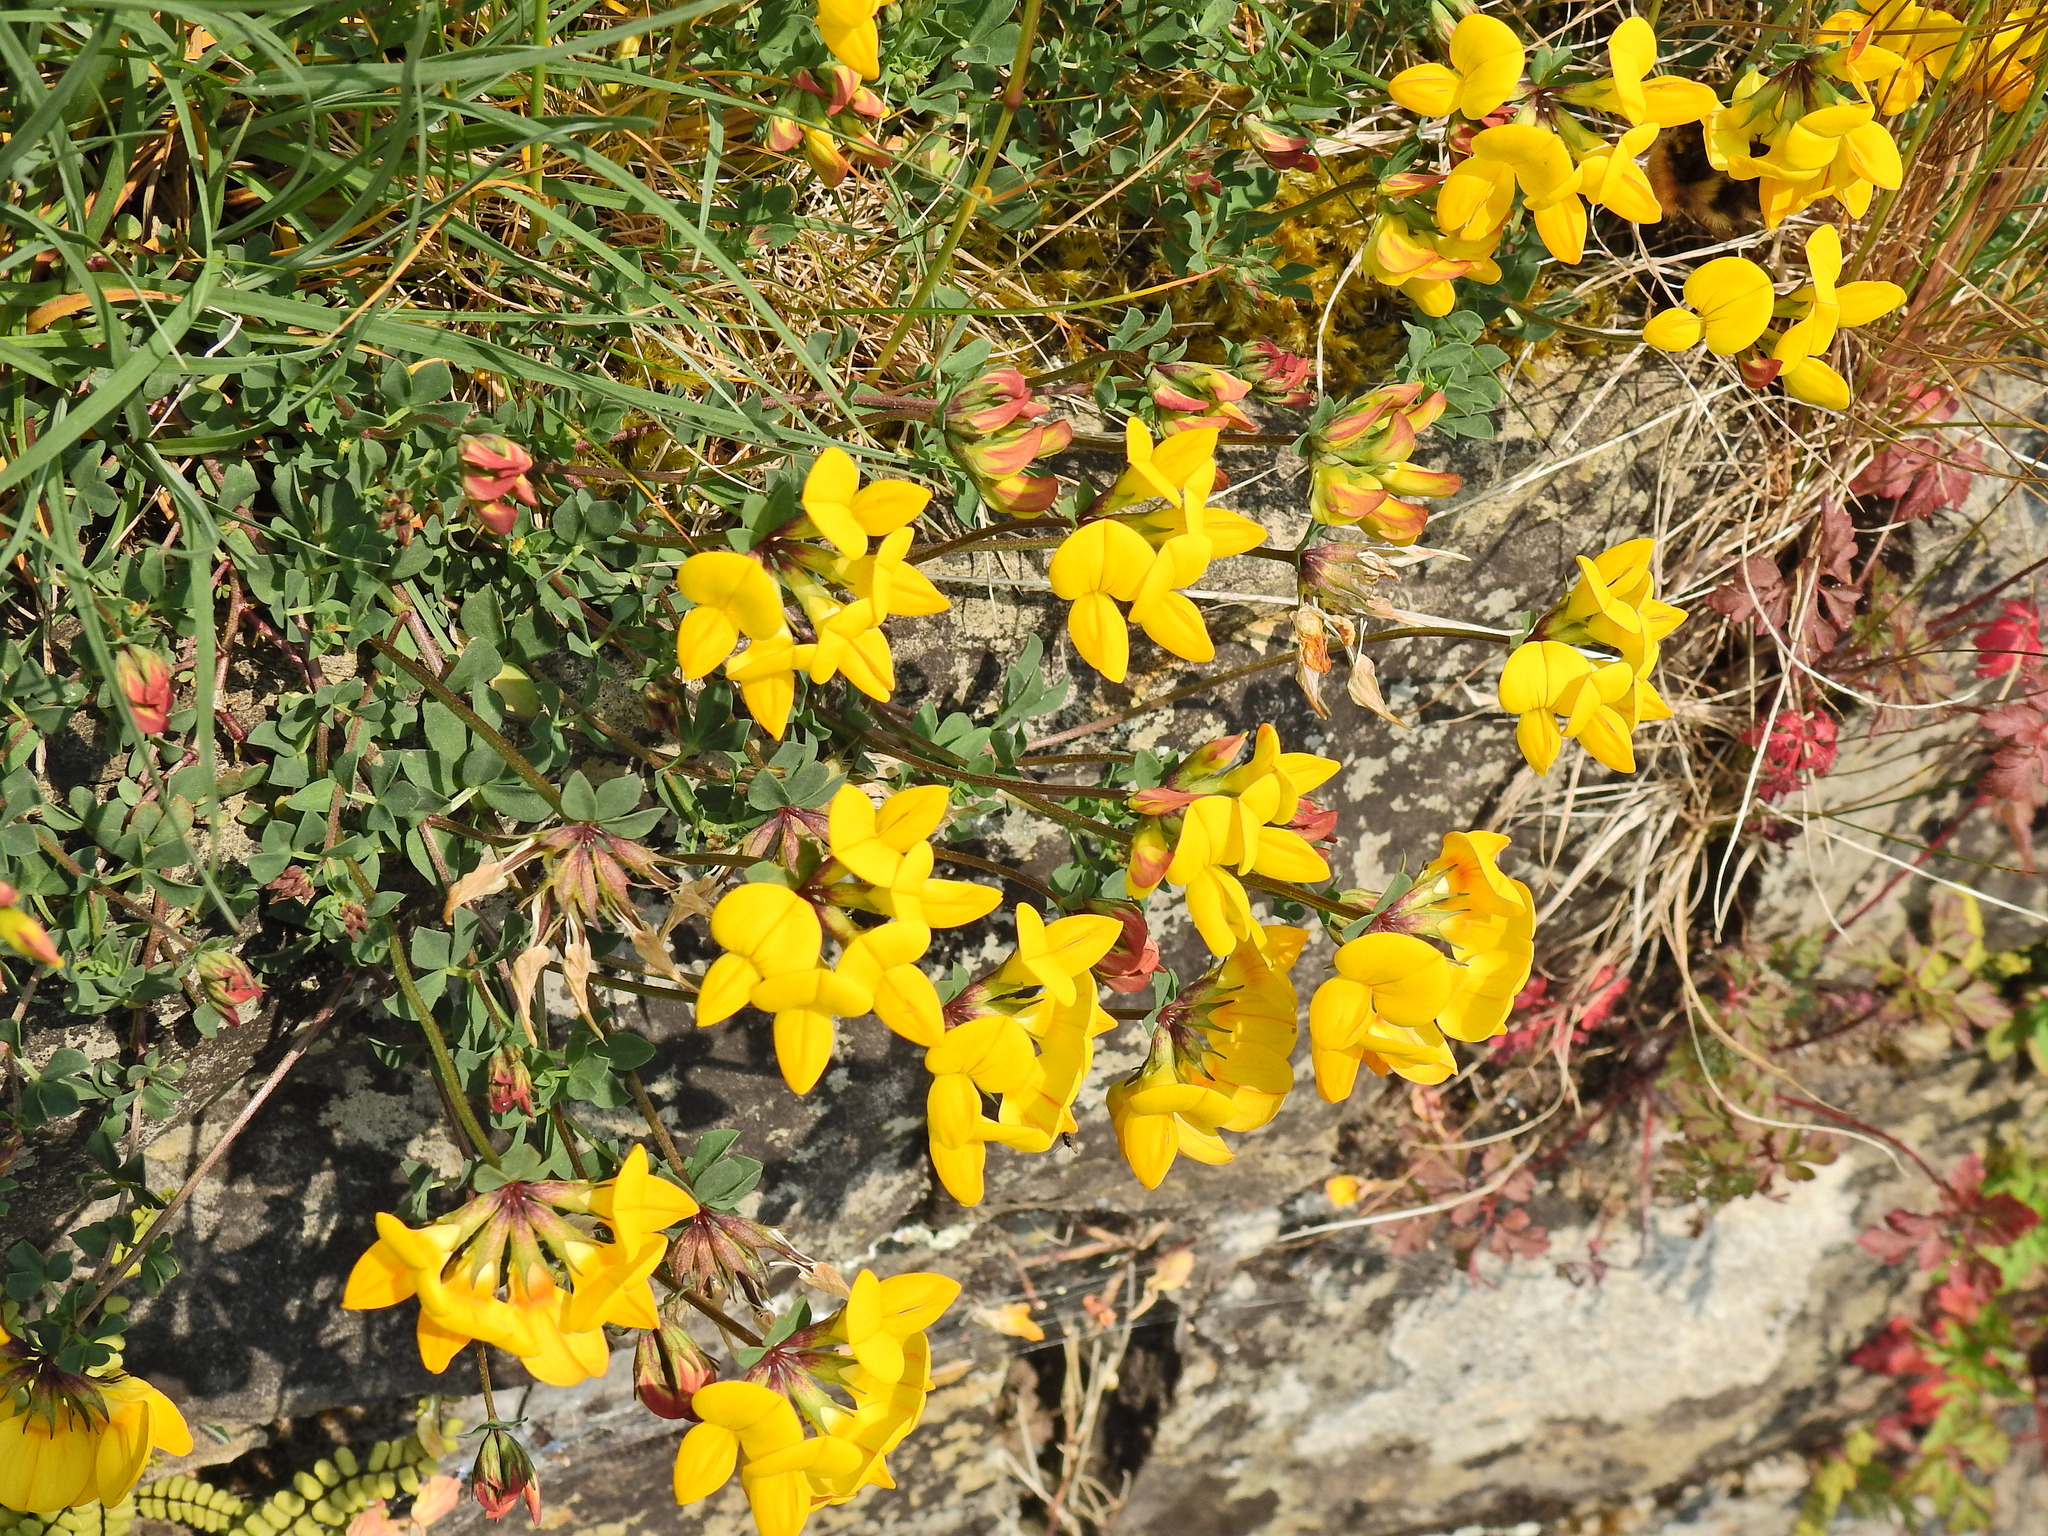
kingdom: Plantae
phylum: Tracheophyta
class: Magnoliopsida
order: Fabales
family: Fabaceae
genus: Lotus
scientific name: Lotus corniculatus
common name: Common bird's-foot-trefoil
